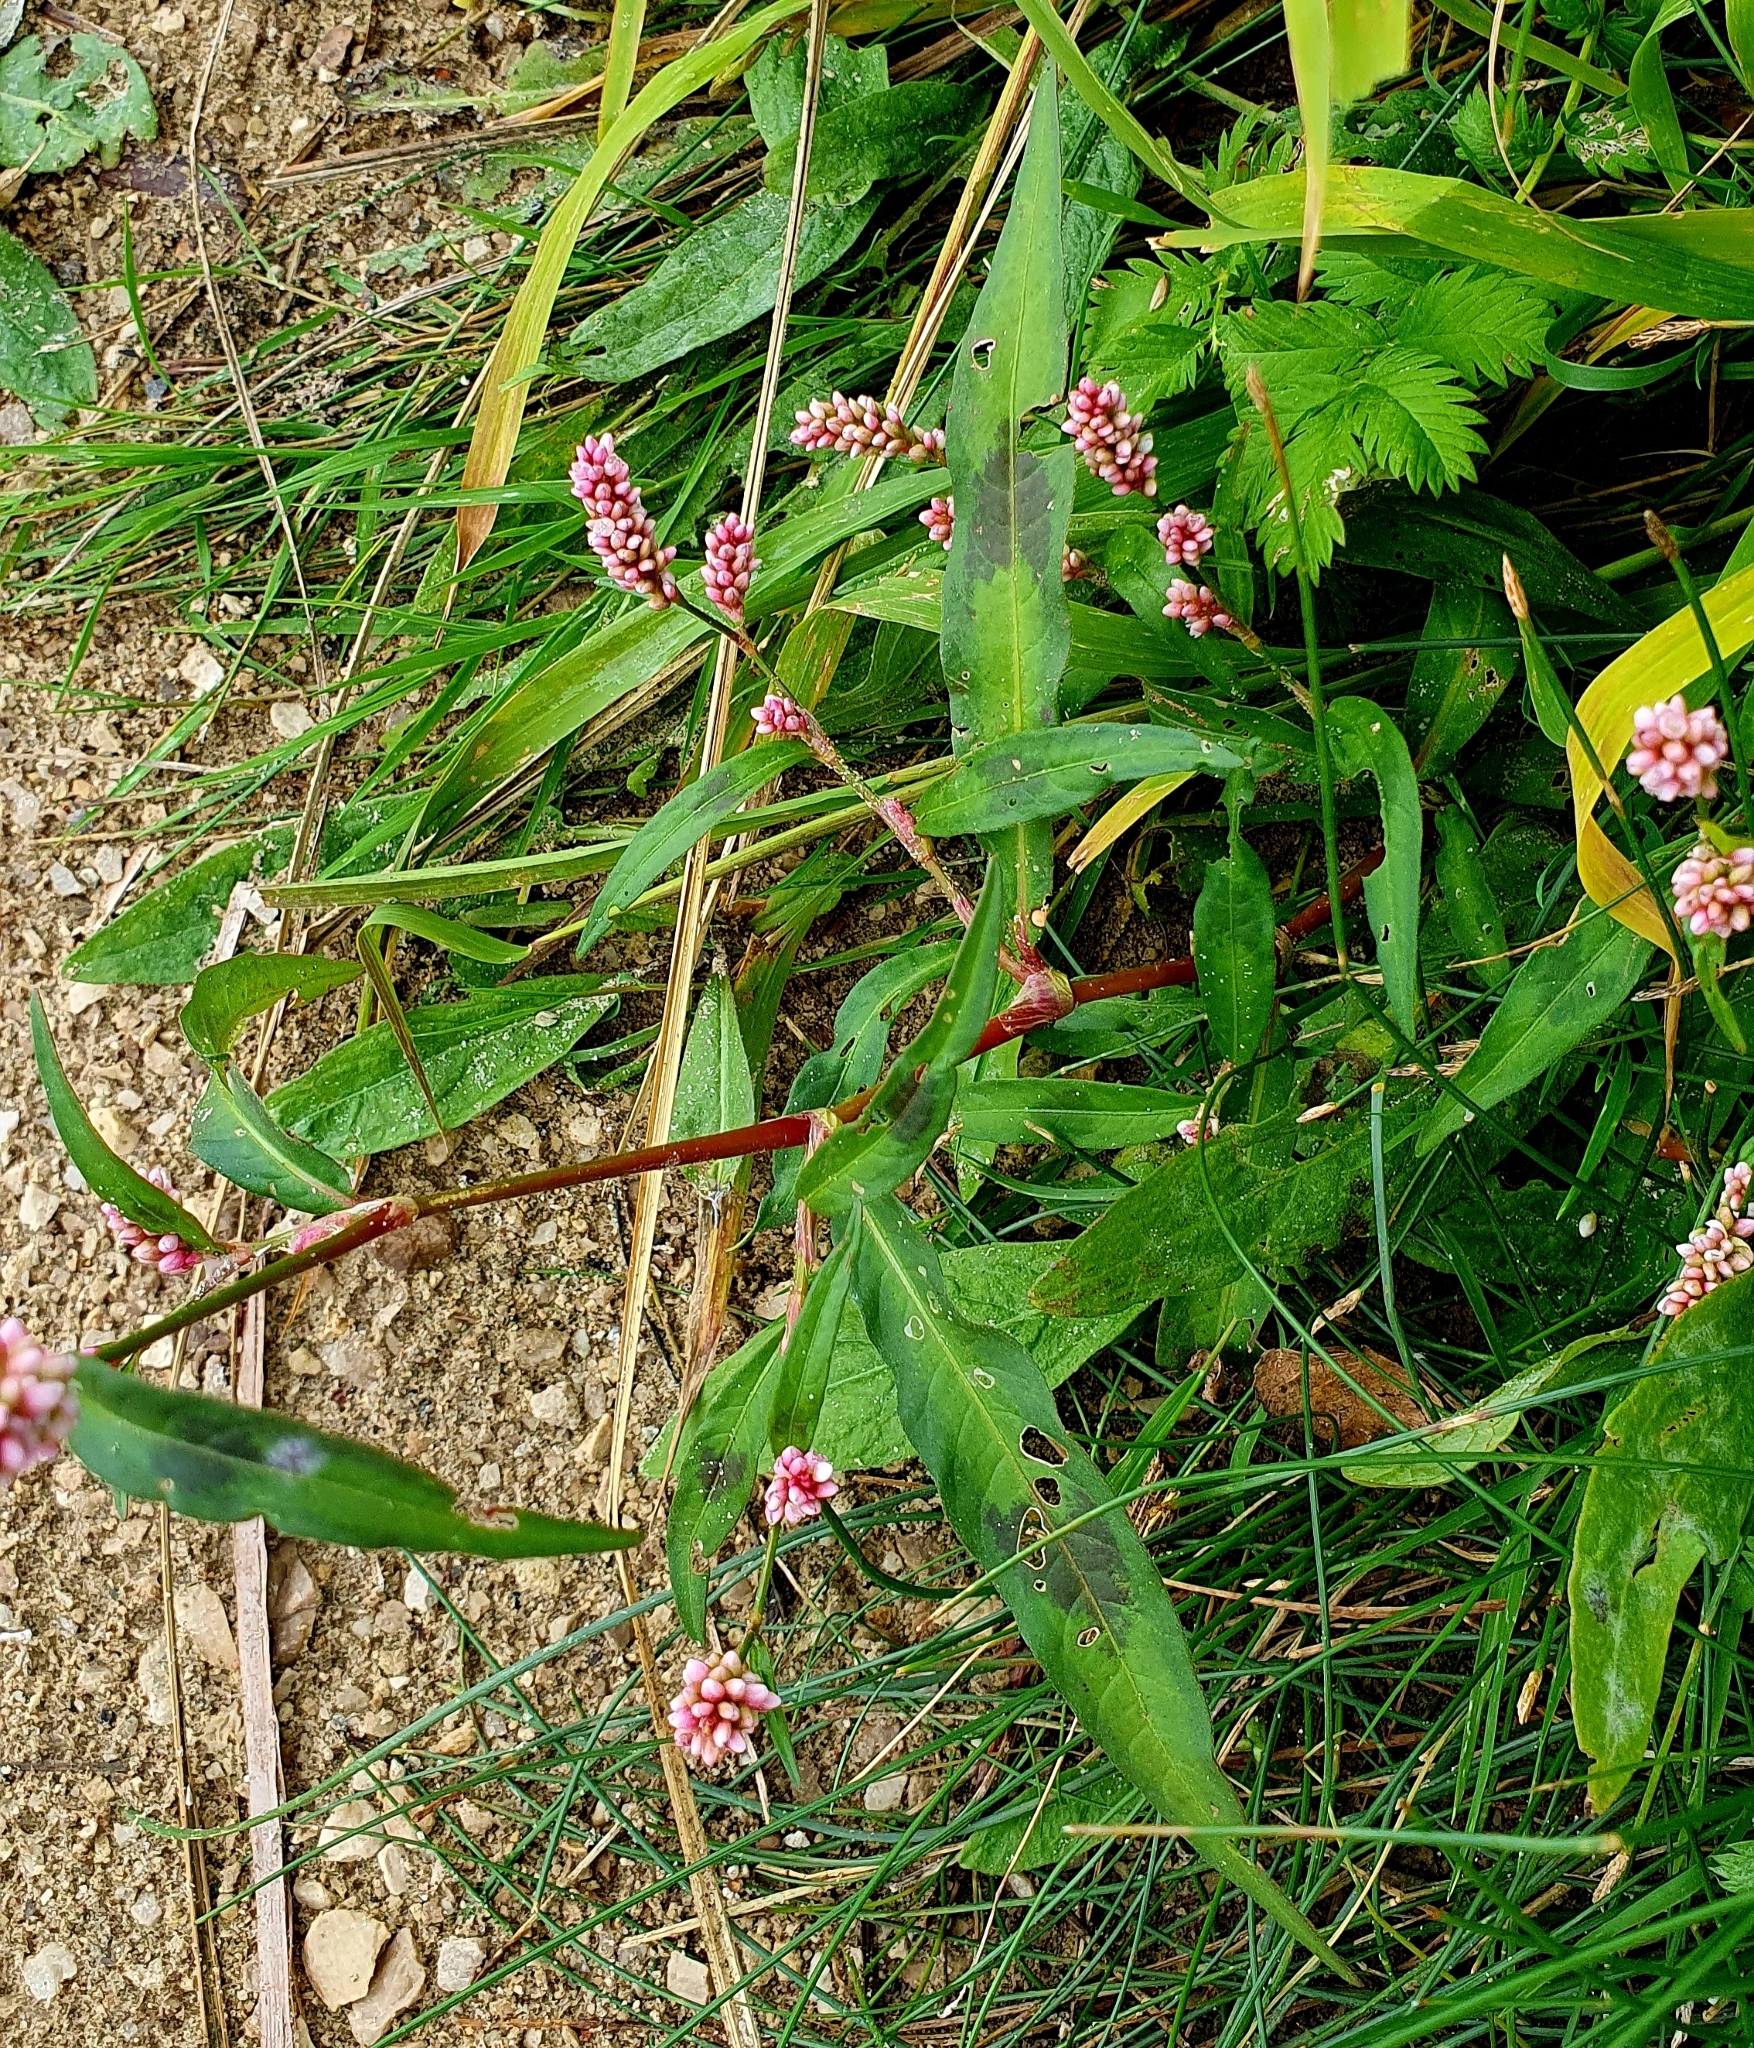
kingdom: Plantae
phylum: Tracheophyta
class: Magnoliopsida
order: Caryophyllales
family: Polygonaceae
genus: Persicaria
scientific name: Persicaria maculosa
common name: Redshank
